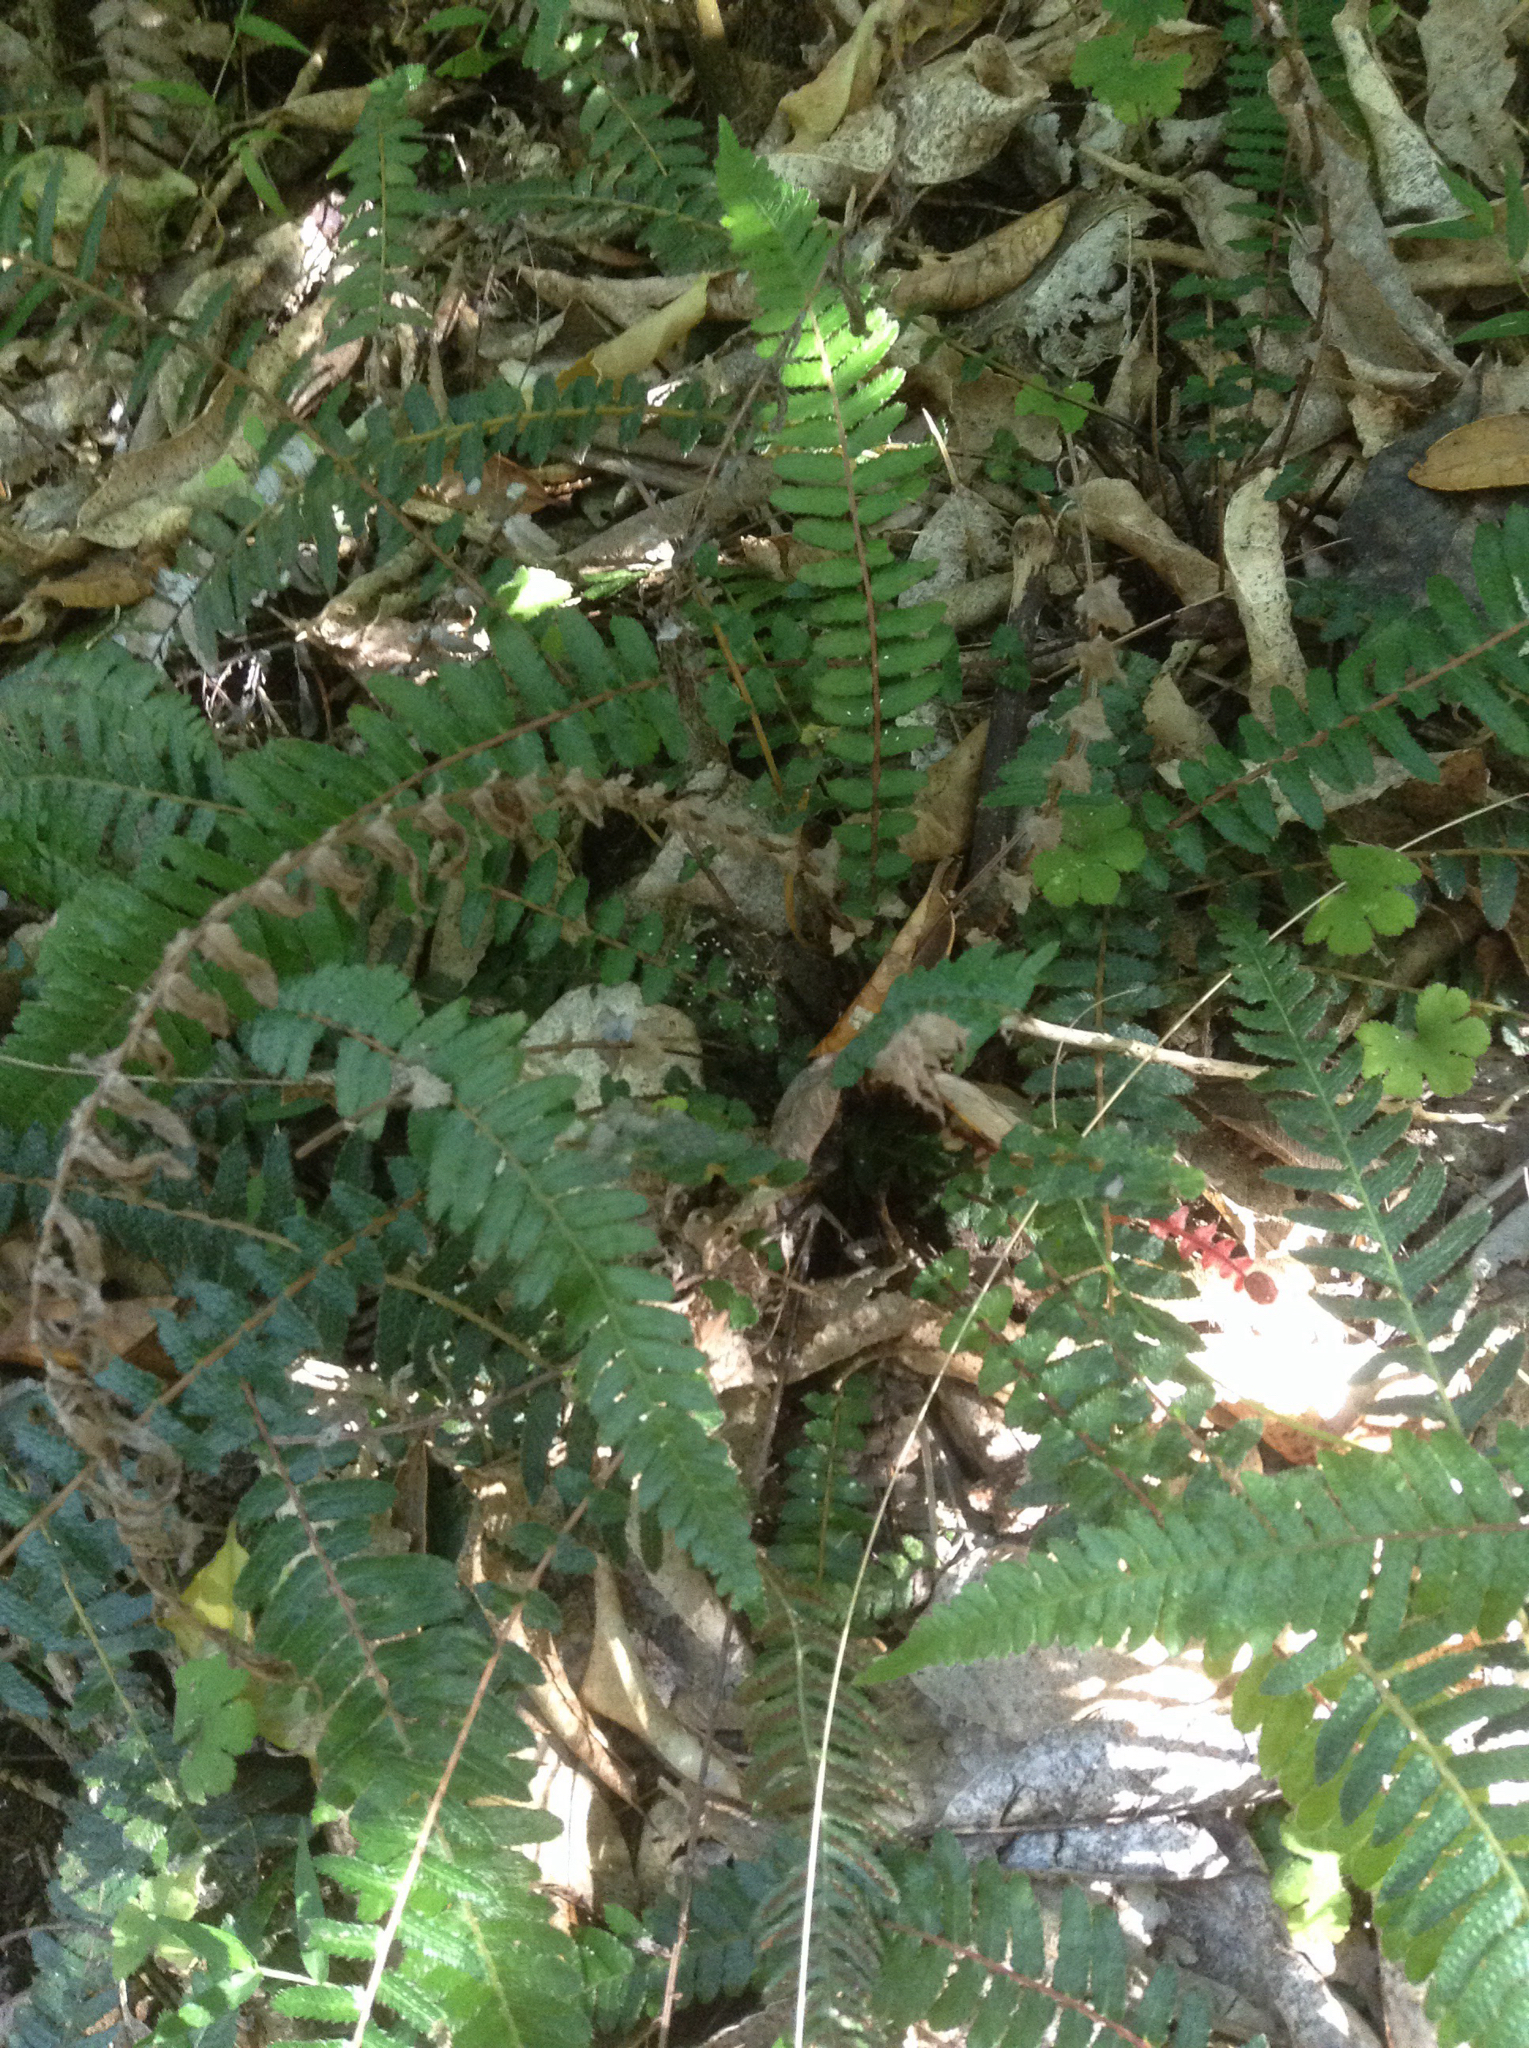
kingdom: Plantae
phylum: Tracheophyta
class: Polypodiopsida
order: Polypodiales
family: Blechnaceae
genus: Doodia
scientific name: Doodia australis
